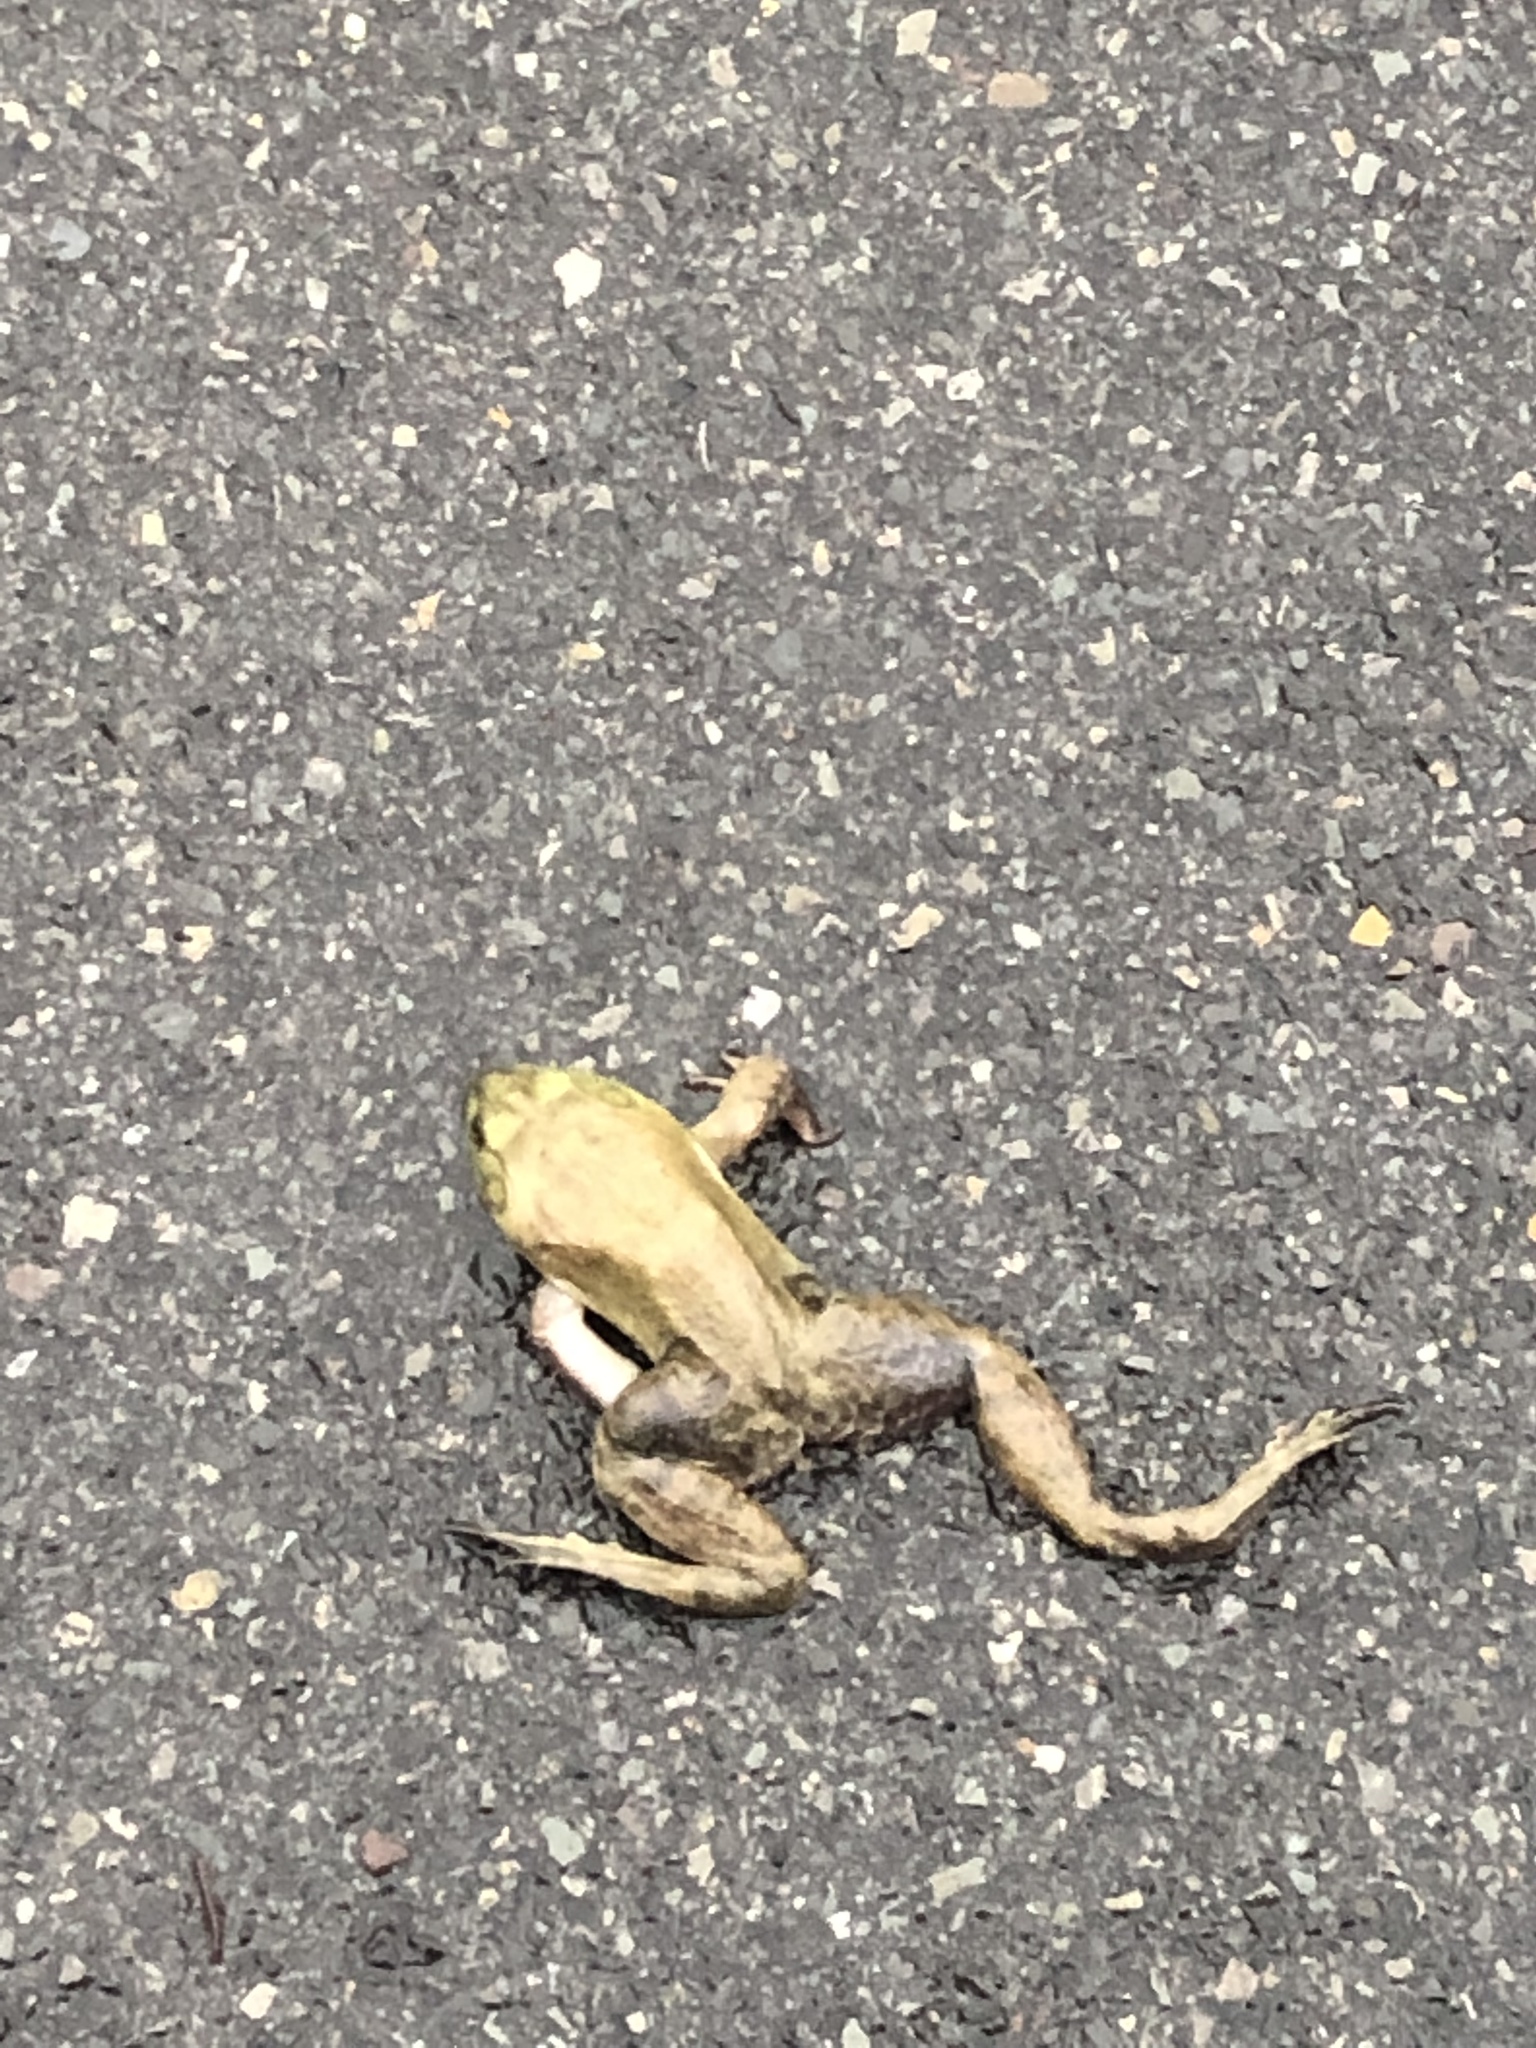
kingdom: Animalia
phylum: Chordata
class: Amphibia
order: Anura
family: Ranidae
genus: Lithobates
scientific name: Lithobates catesbeianus
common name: American bullfrog
